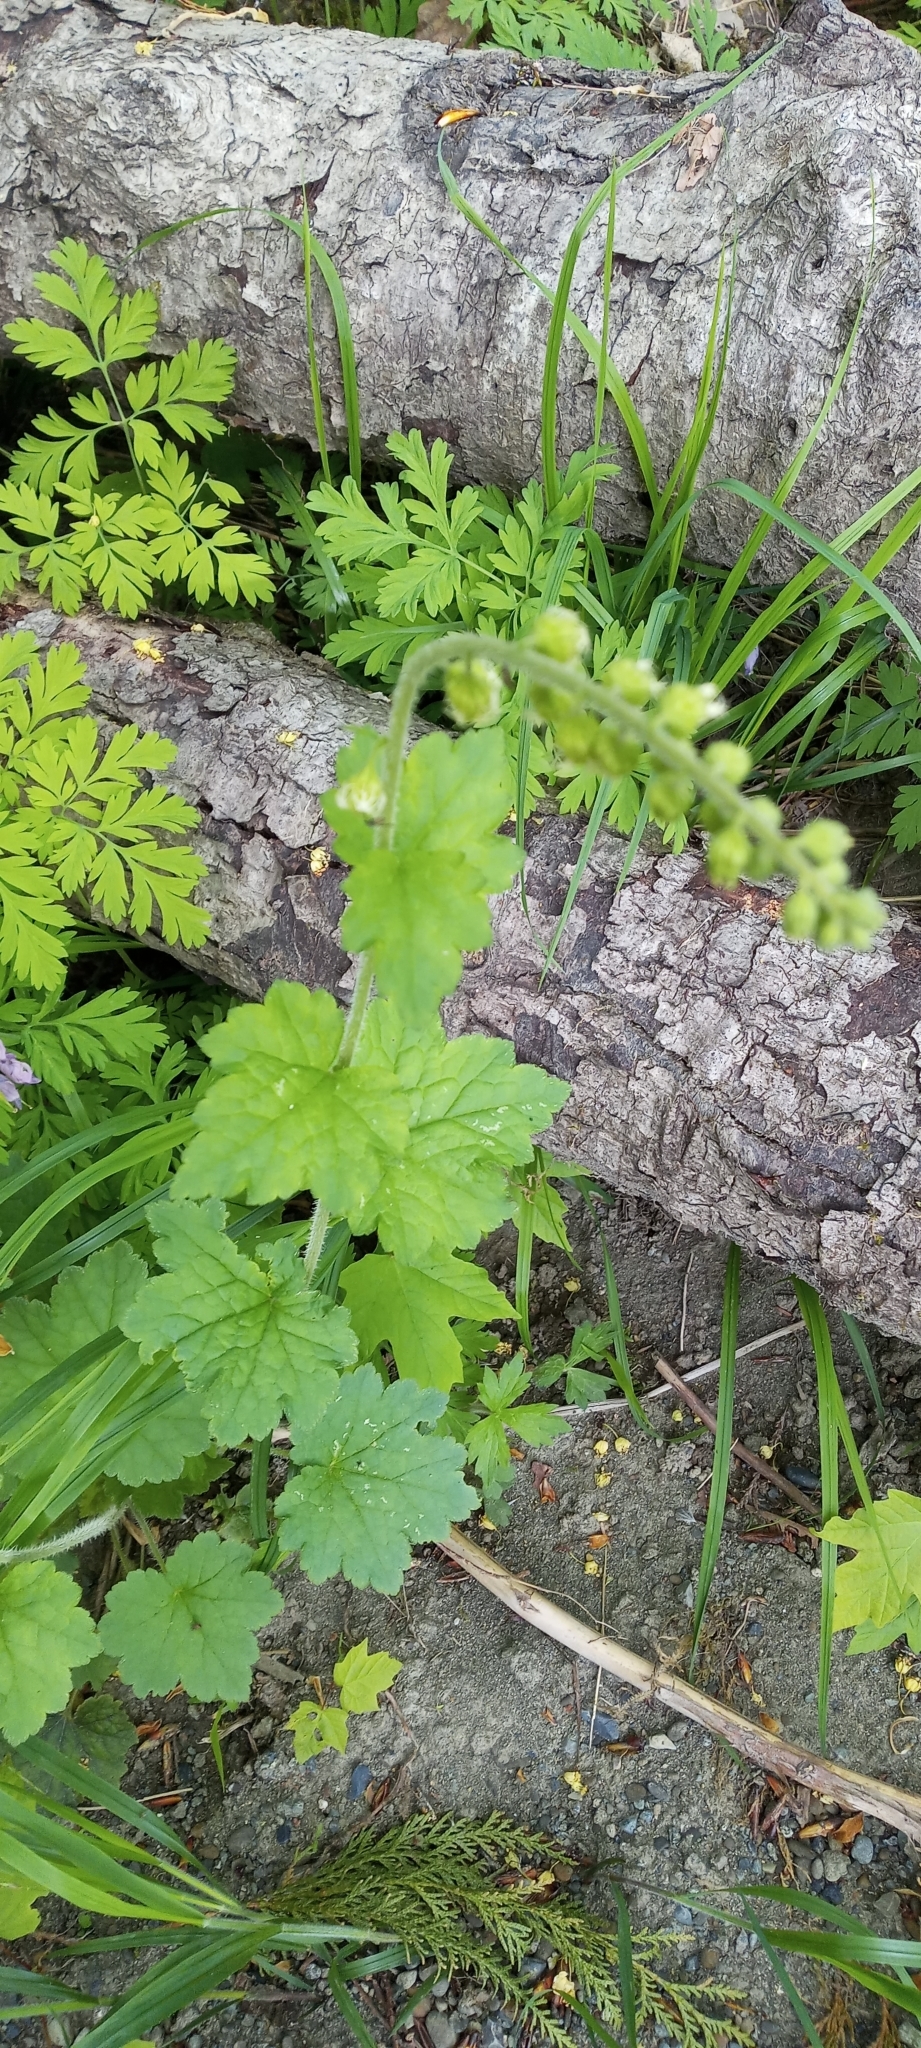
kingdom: Plantae
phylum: Tracheophyta
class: Magnoliopsida
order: Saxifragales
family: Saxifragaceae
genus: Tellima
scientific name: Tellima grandiflora
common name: Fringecups
